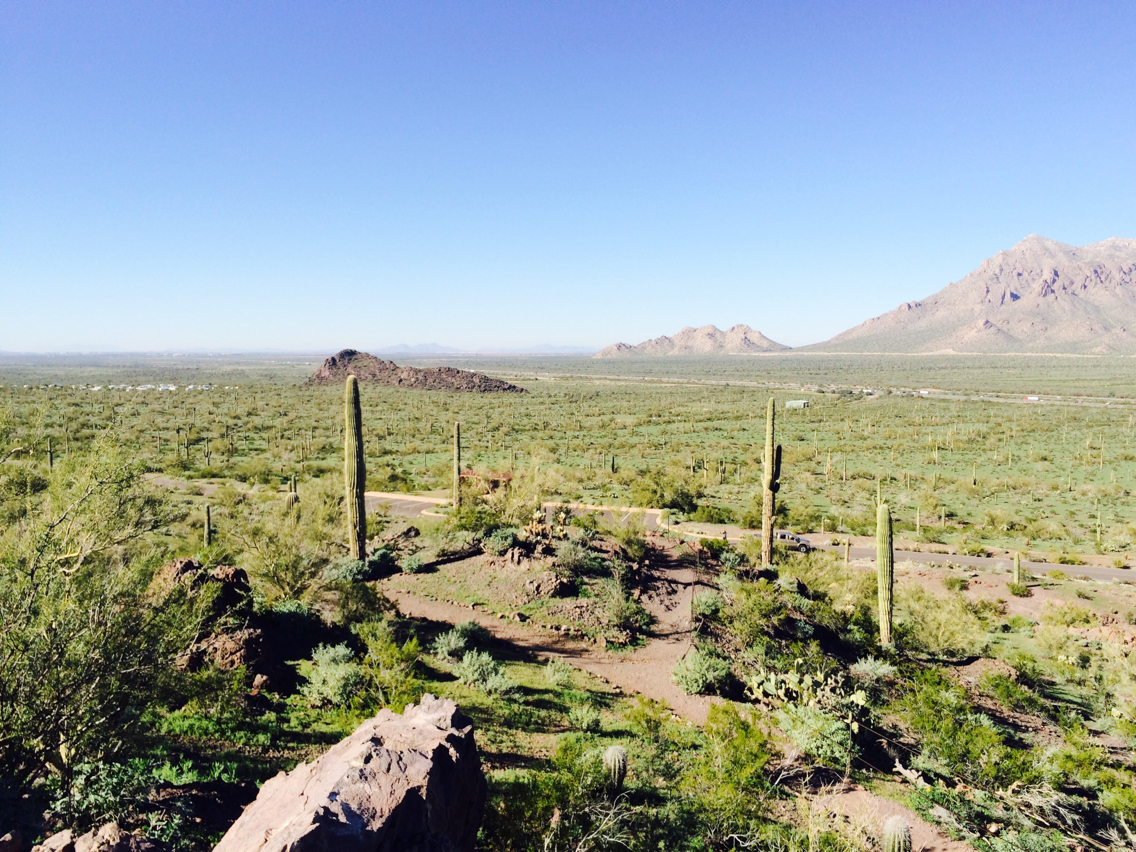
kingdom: Plantae
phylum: Tracheophyta
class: Magnoliopsida
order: Caryophyllales
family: Cactaceae
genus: Carnegiea
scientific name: Carnegiea gigantea
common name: Saguaro
